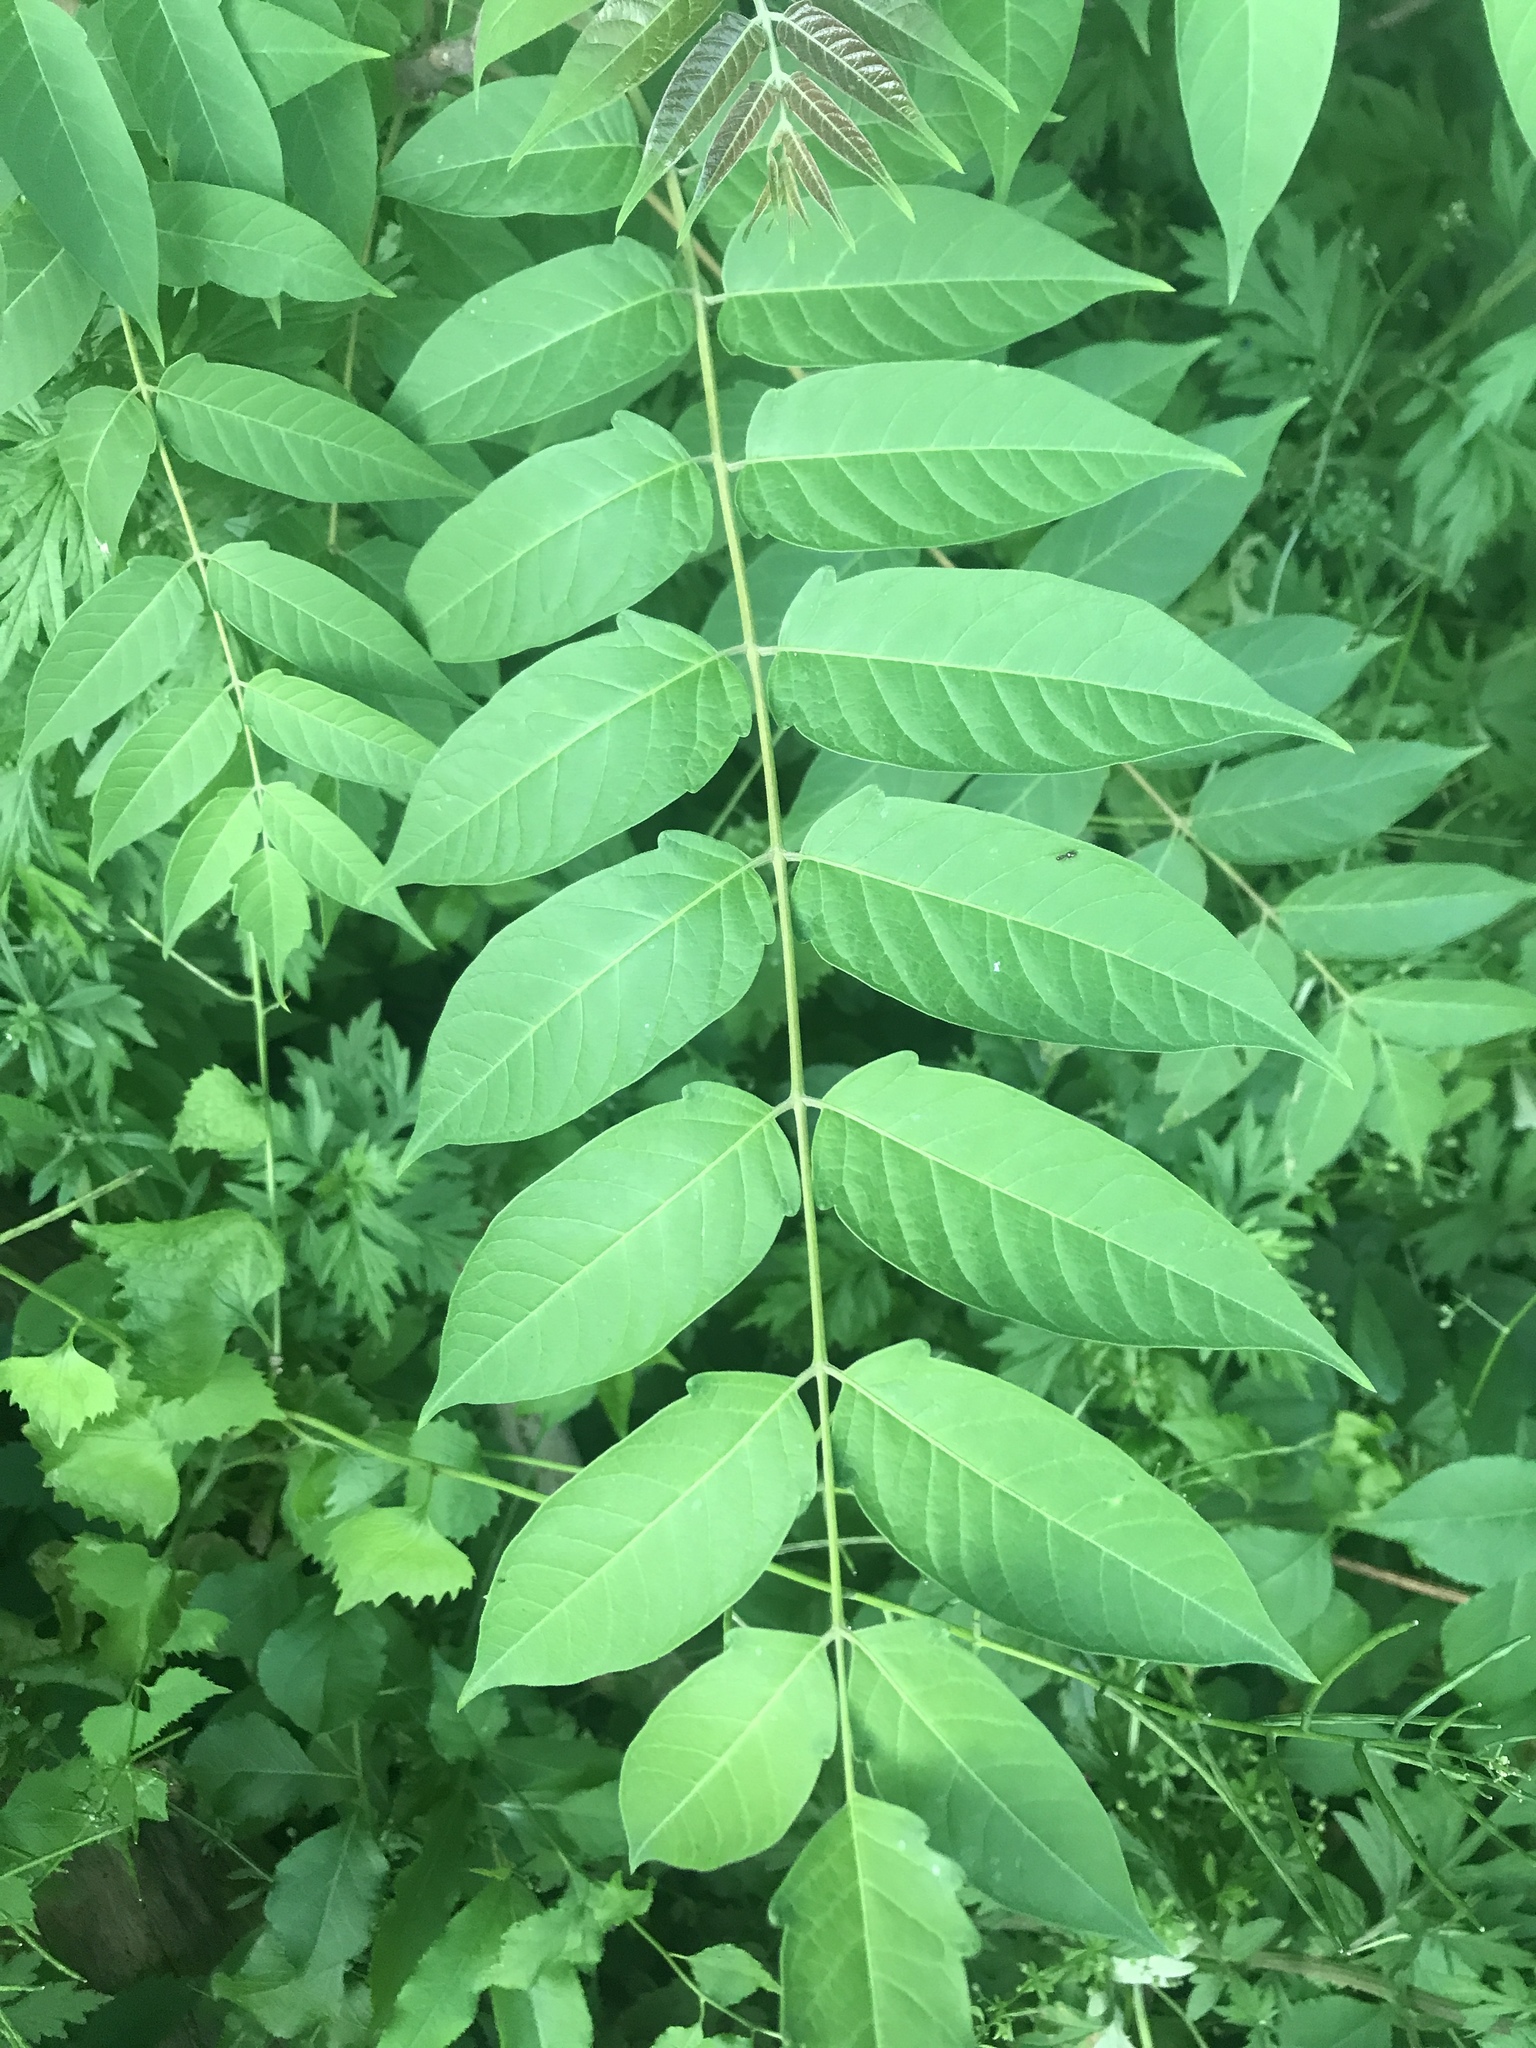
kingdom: Plantae
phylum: Tracheophyta
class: Magnoliopsida
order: Sapindales
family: Simaroubaceae
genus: Ailanthus
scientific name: Ailanthus altissima
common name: Tree-of-heaven
